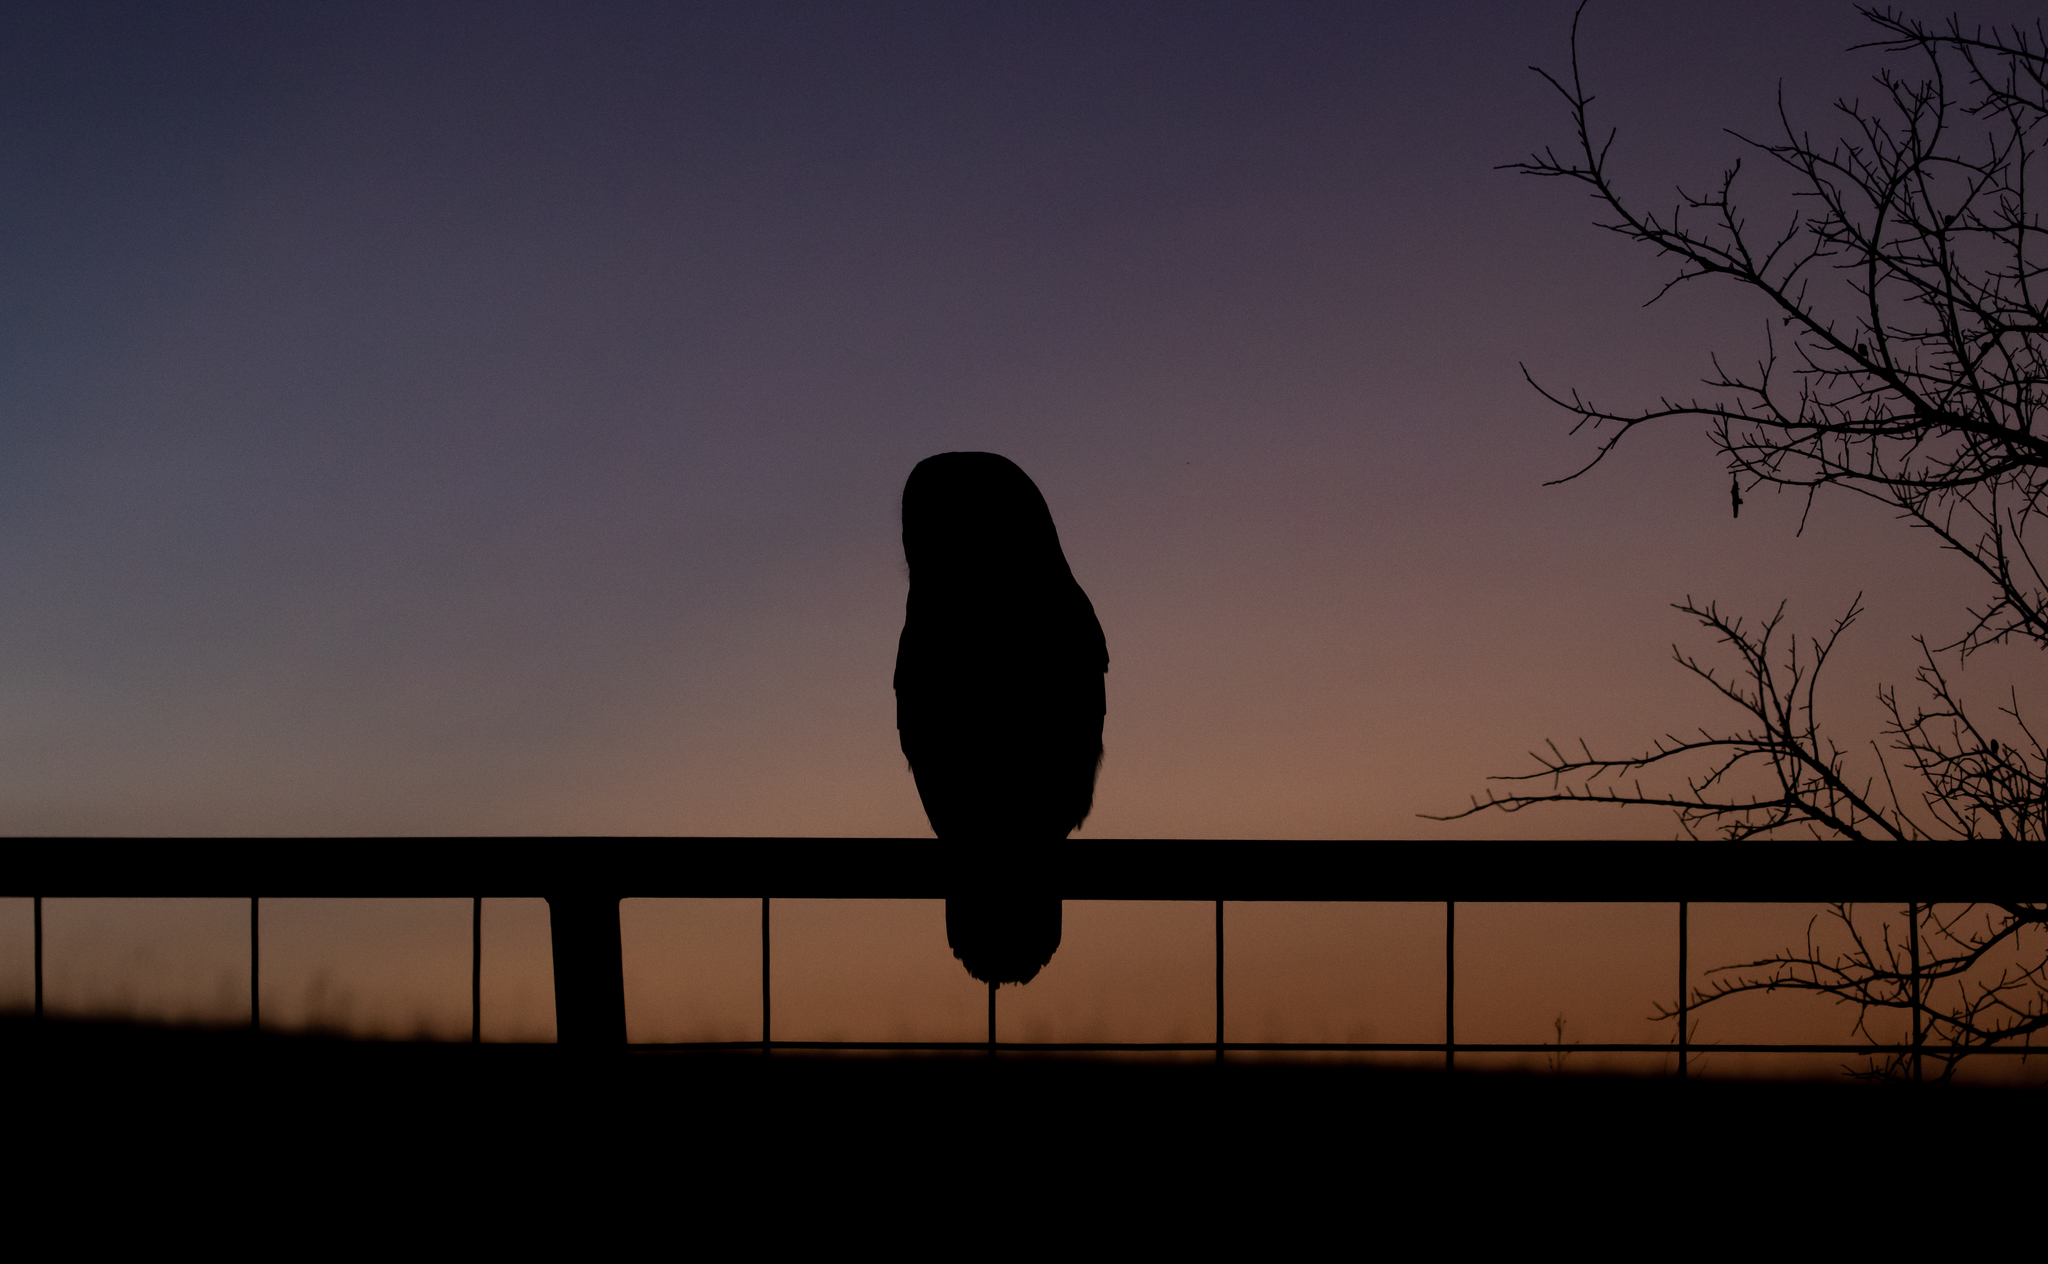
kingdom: Animalia
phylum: Chordata
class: Aves
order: Strigiformes
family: Strigidae
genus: Strix
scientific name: Strix varia
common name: Barred owl
